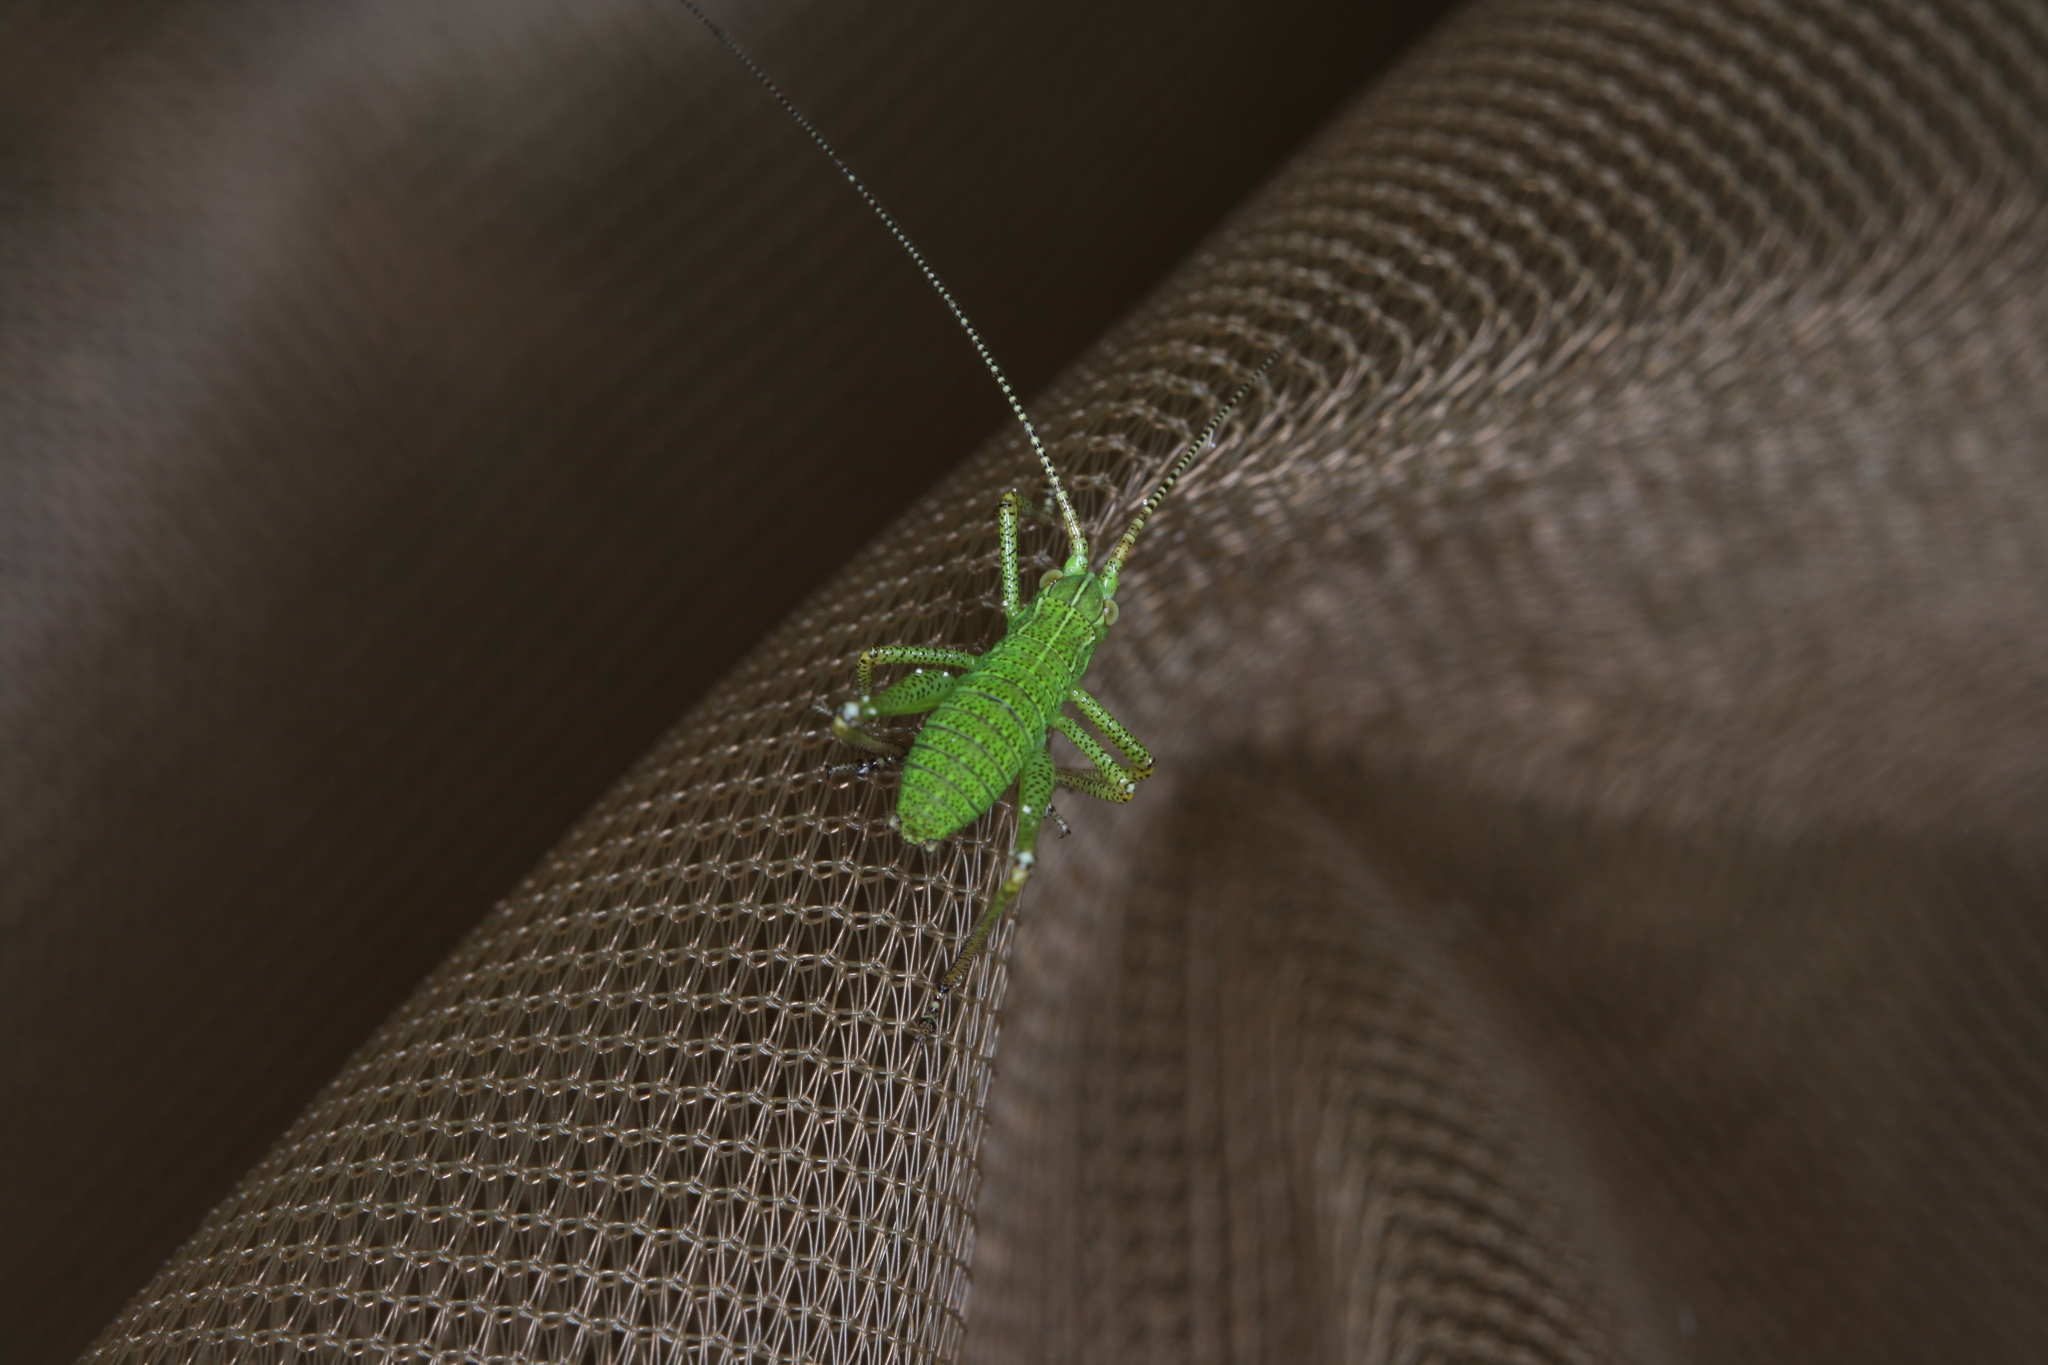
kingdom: Animalia
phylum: Arthropoda
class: Insecta
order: Orthoptera
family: Tettigoniidae
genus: Barbitistes
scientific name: Barbitistes serricauda
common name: Saw-tailed bush-cricket
